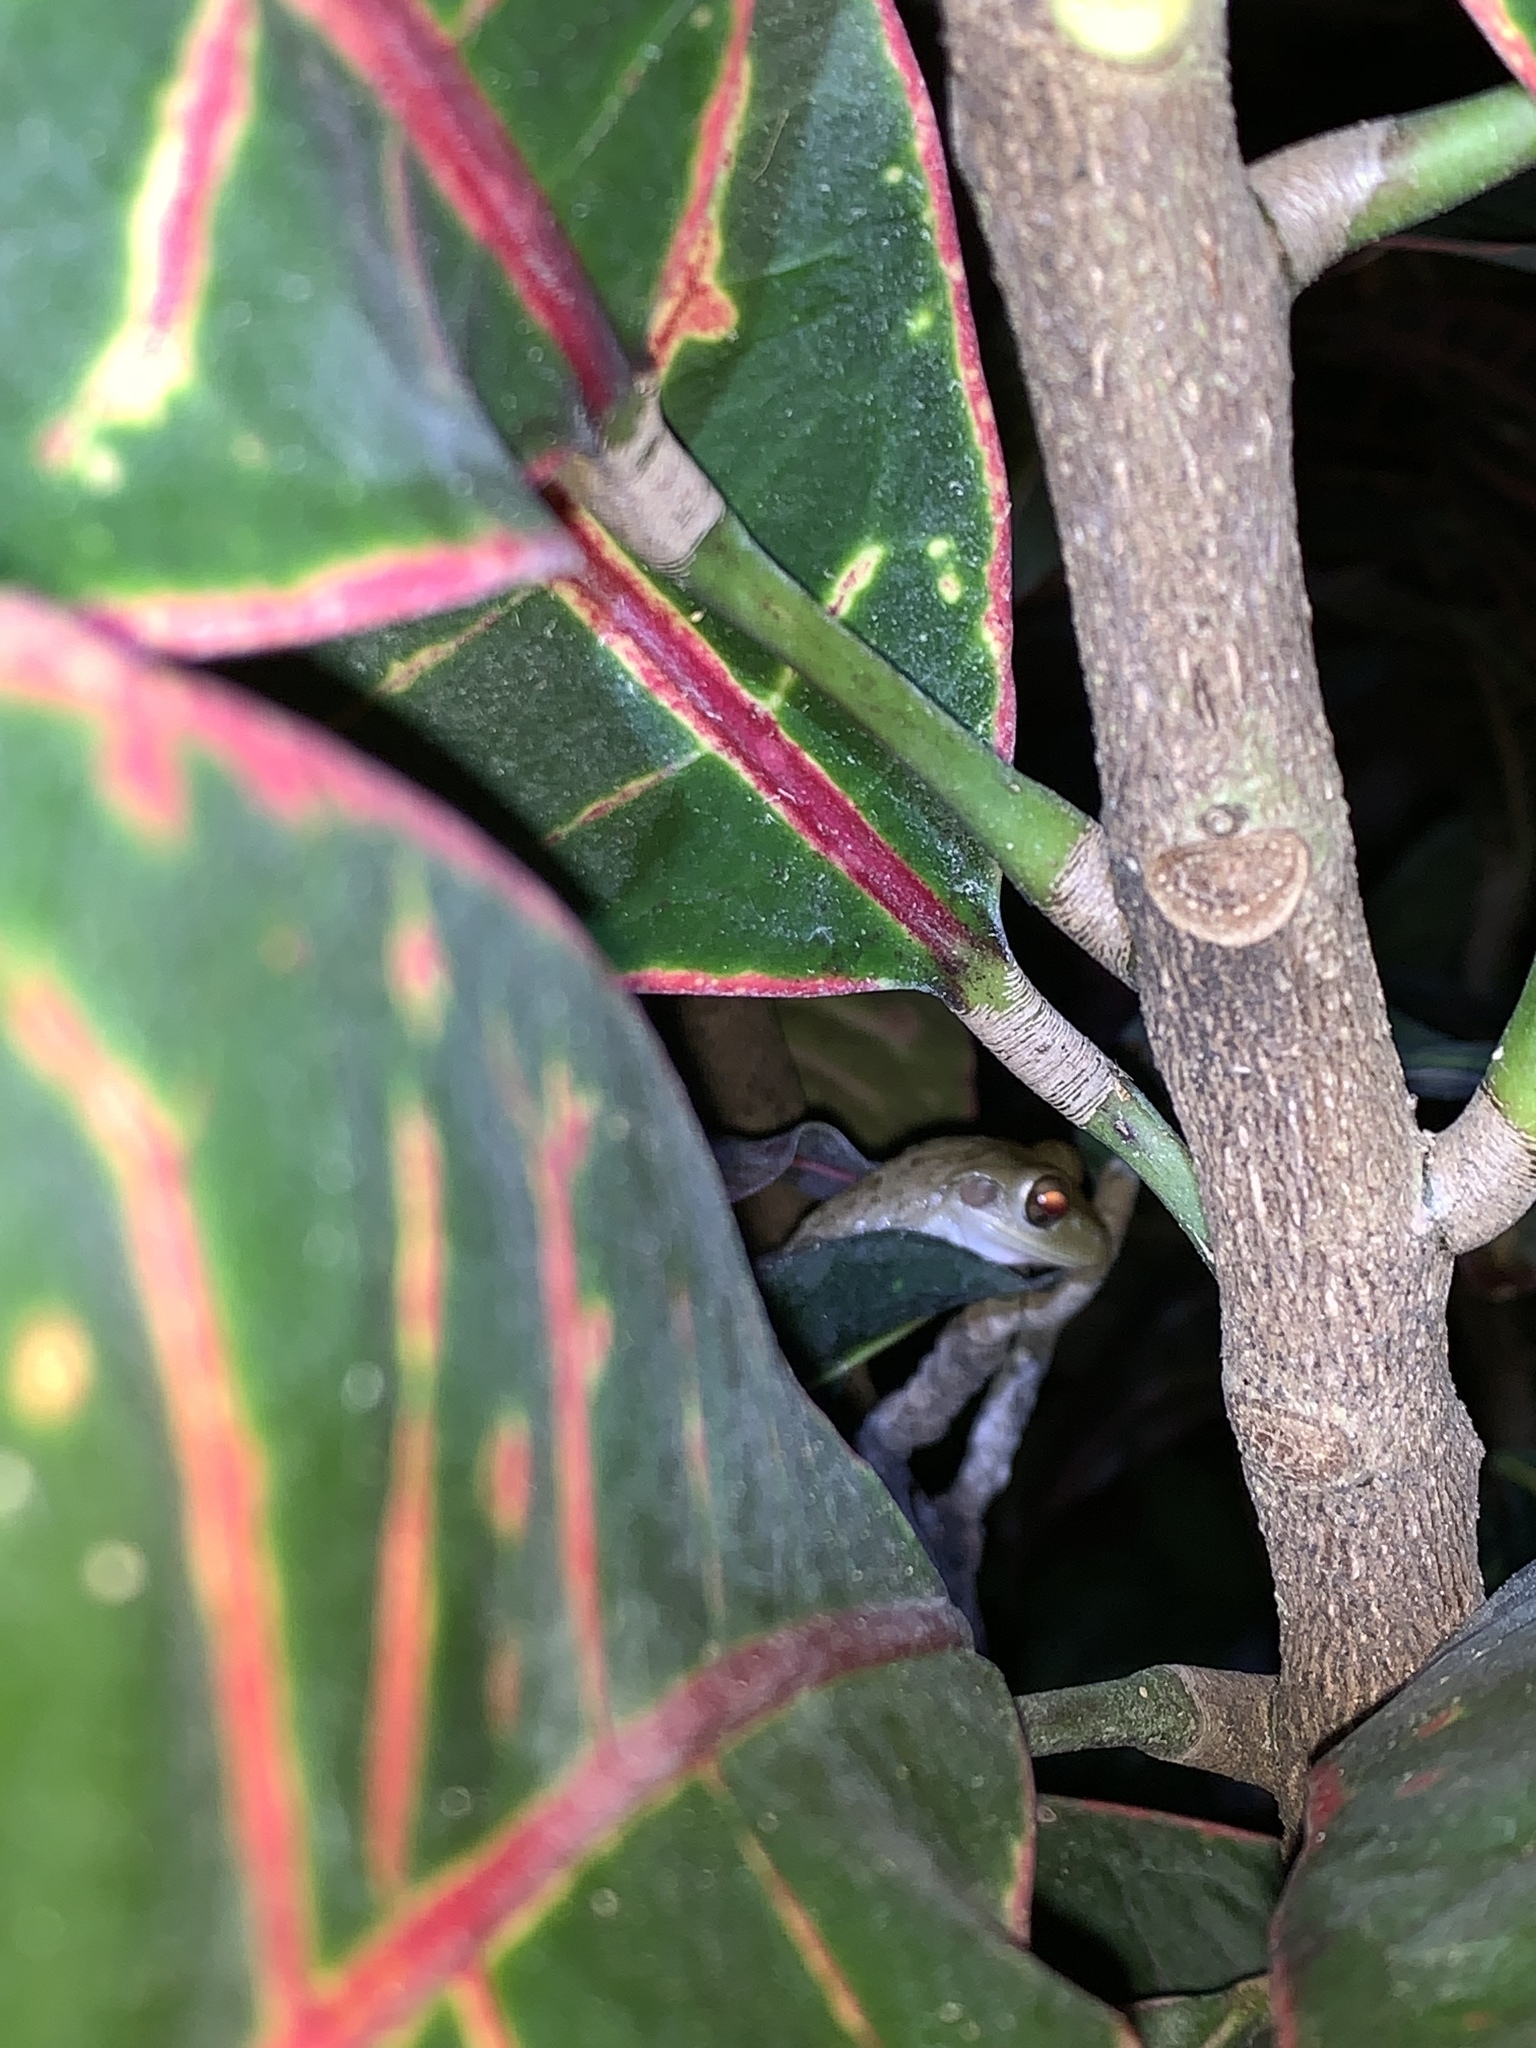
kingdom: Animalia
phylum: Chordata
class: Amphibia
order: Anura
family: Hylidae
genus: Osteopilus
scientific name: Osteopilus septentrionalis
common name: Cuban treefrog
